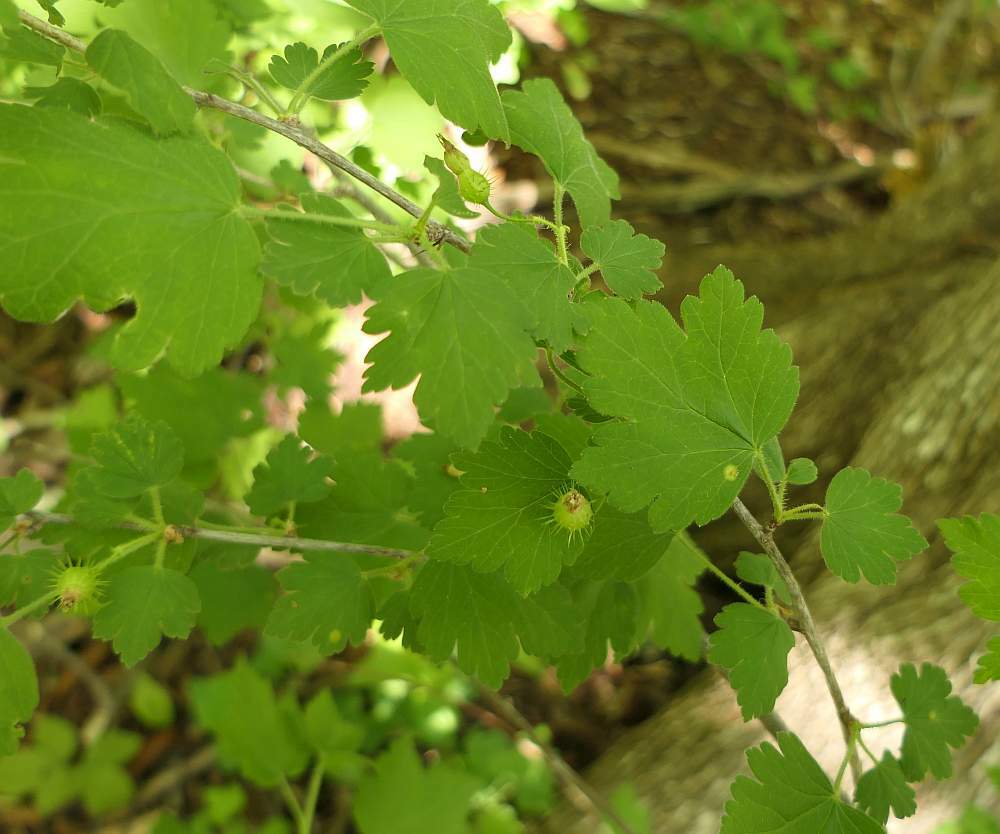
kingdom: Plantae
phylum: Tracheophyta
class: Magnoliopsida
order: Saxifragales
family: Grossulariaceae
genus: Ribes
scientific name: Ribes cynosbati
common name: American gooseberry
